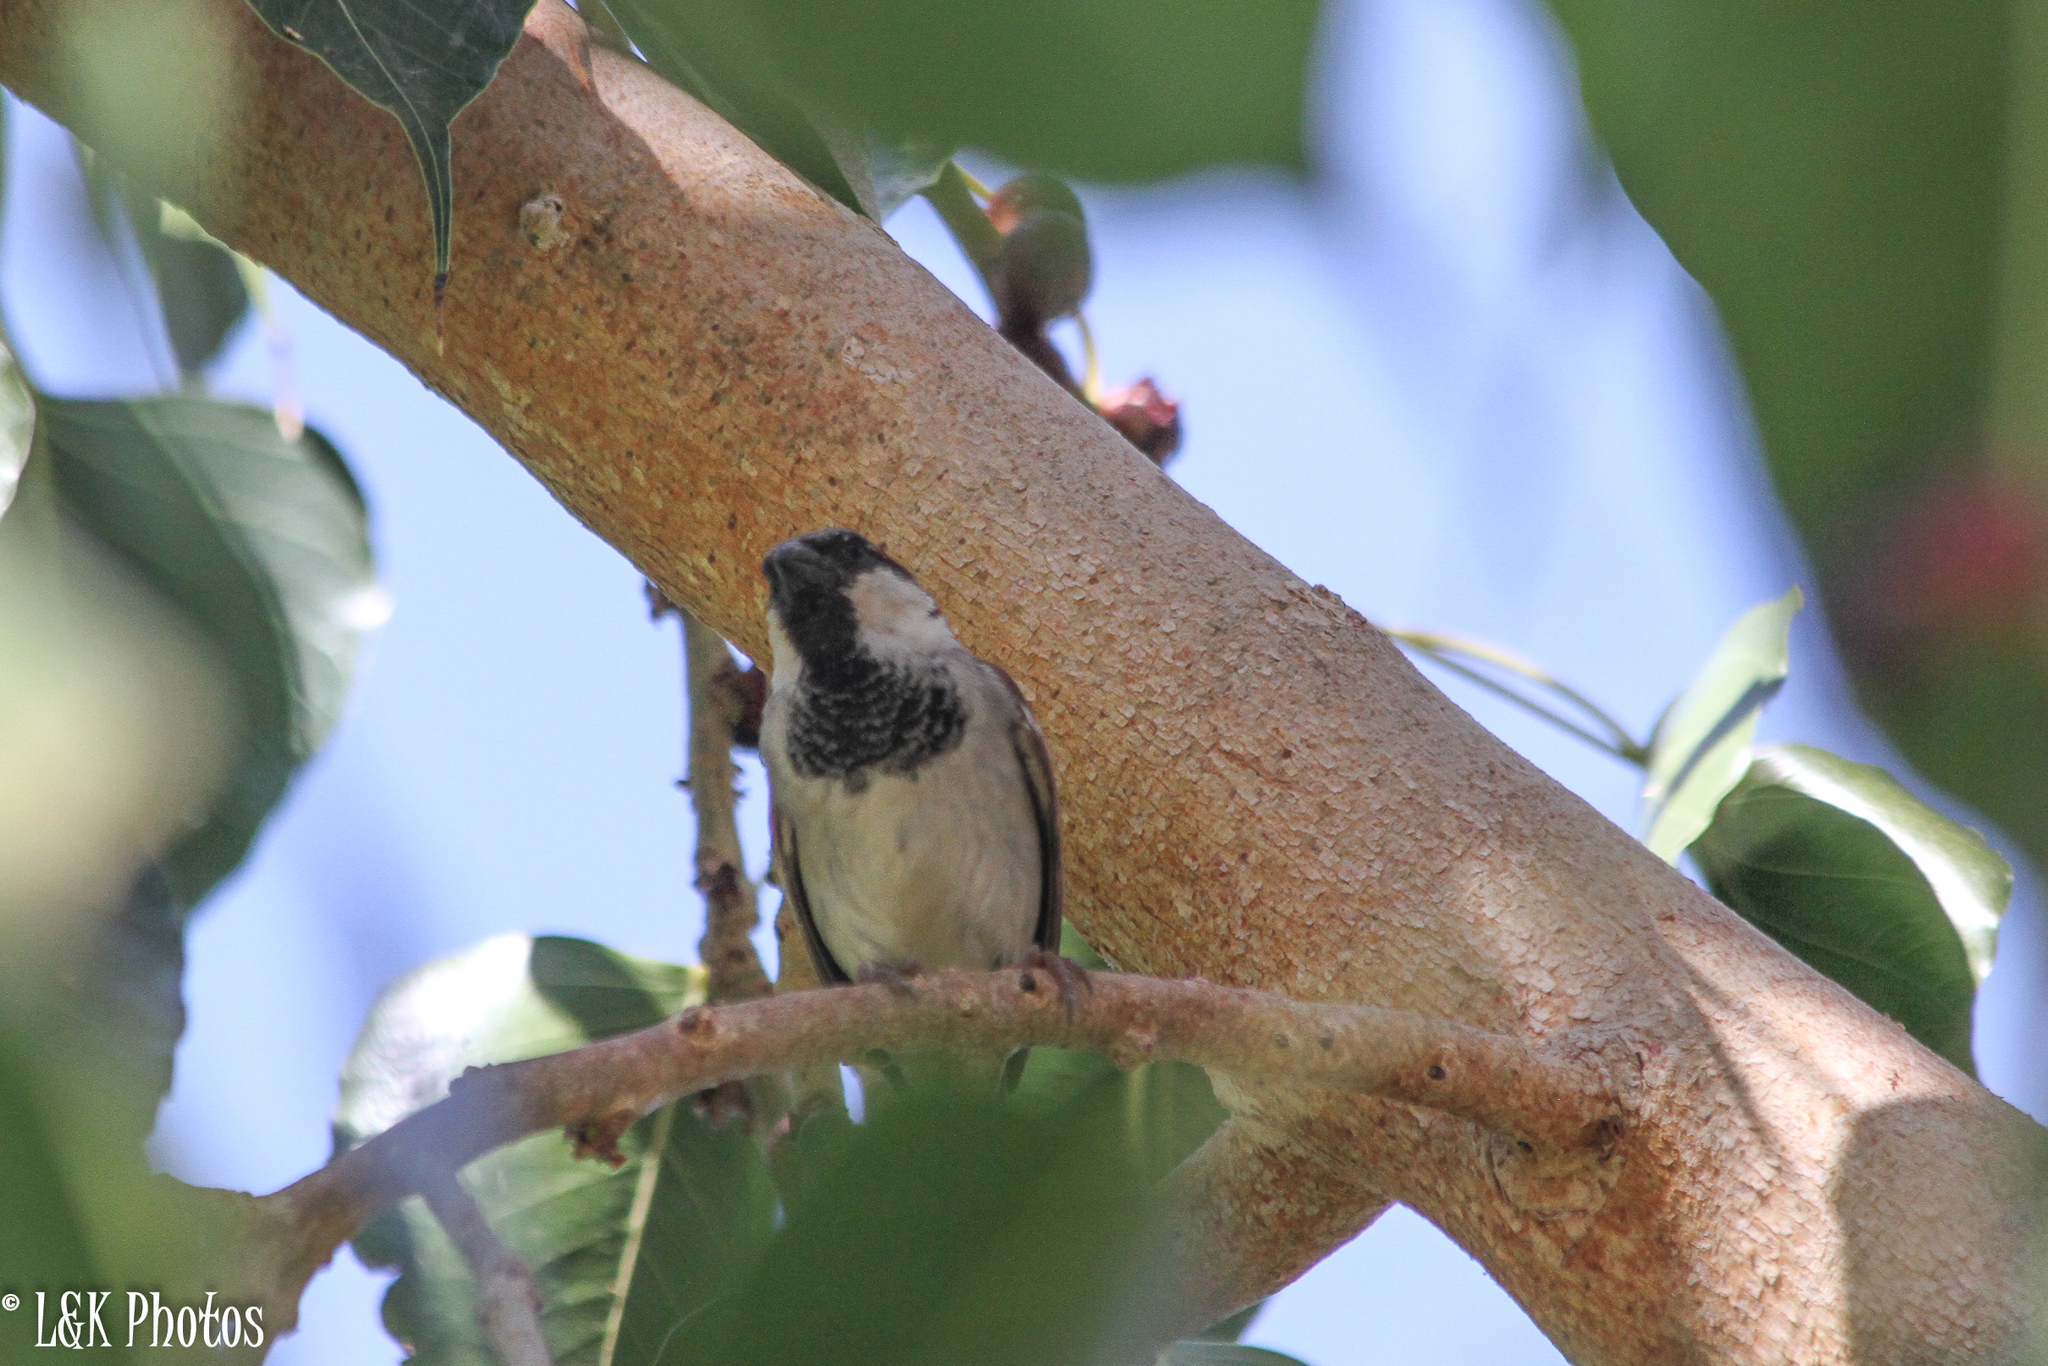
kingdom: Animalia
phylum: Chordata
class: Aves
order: Passeriformes
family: Passeridae
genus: Passer
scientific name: Passer domesticus
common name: House sparrow
